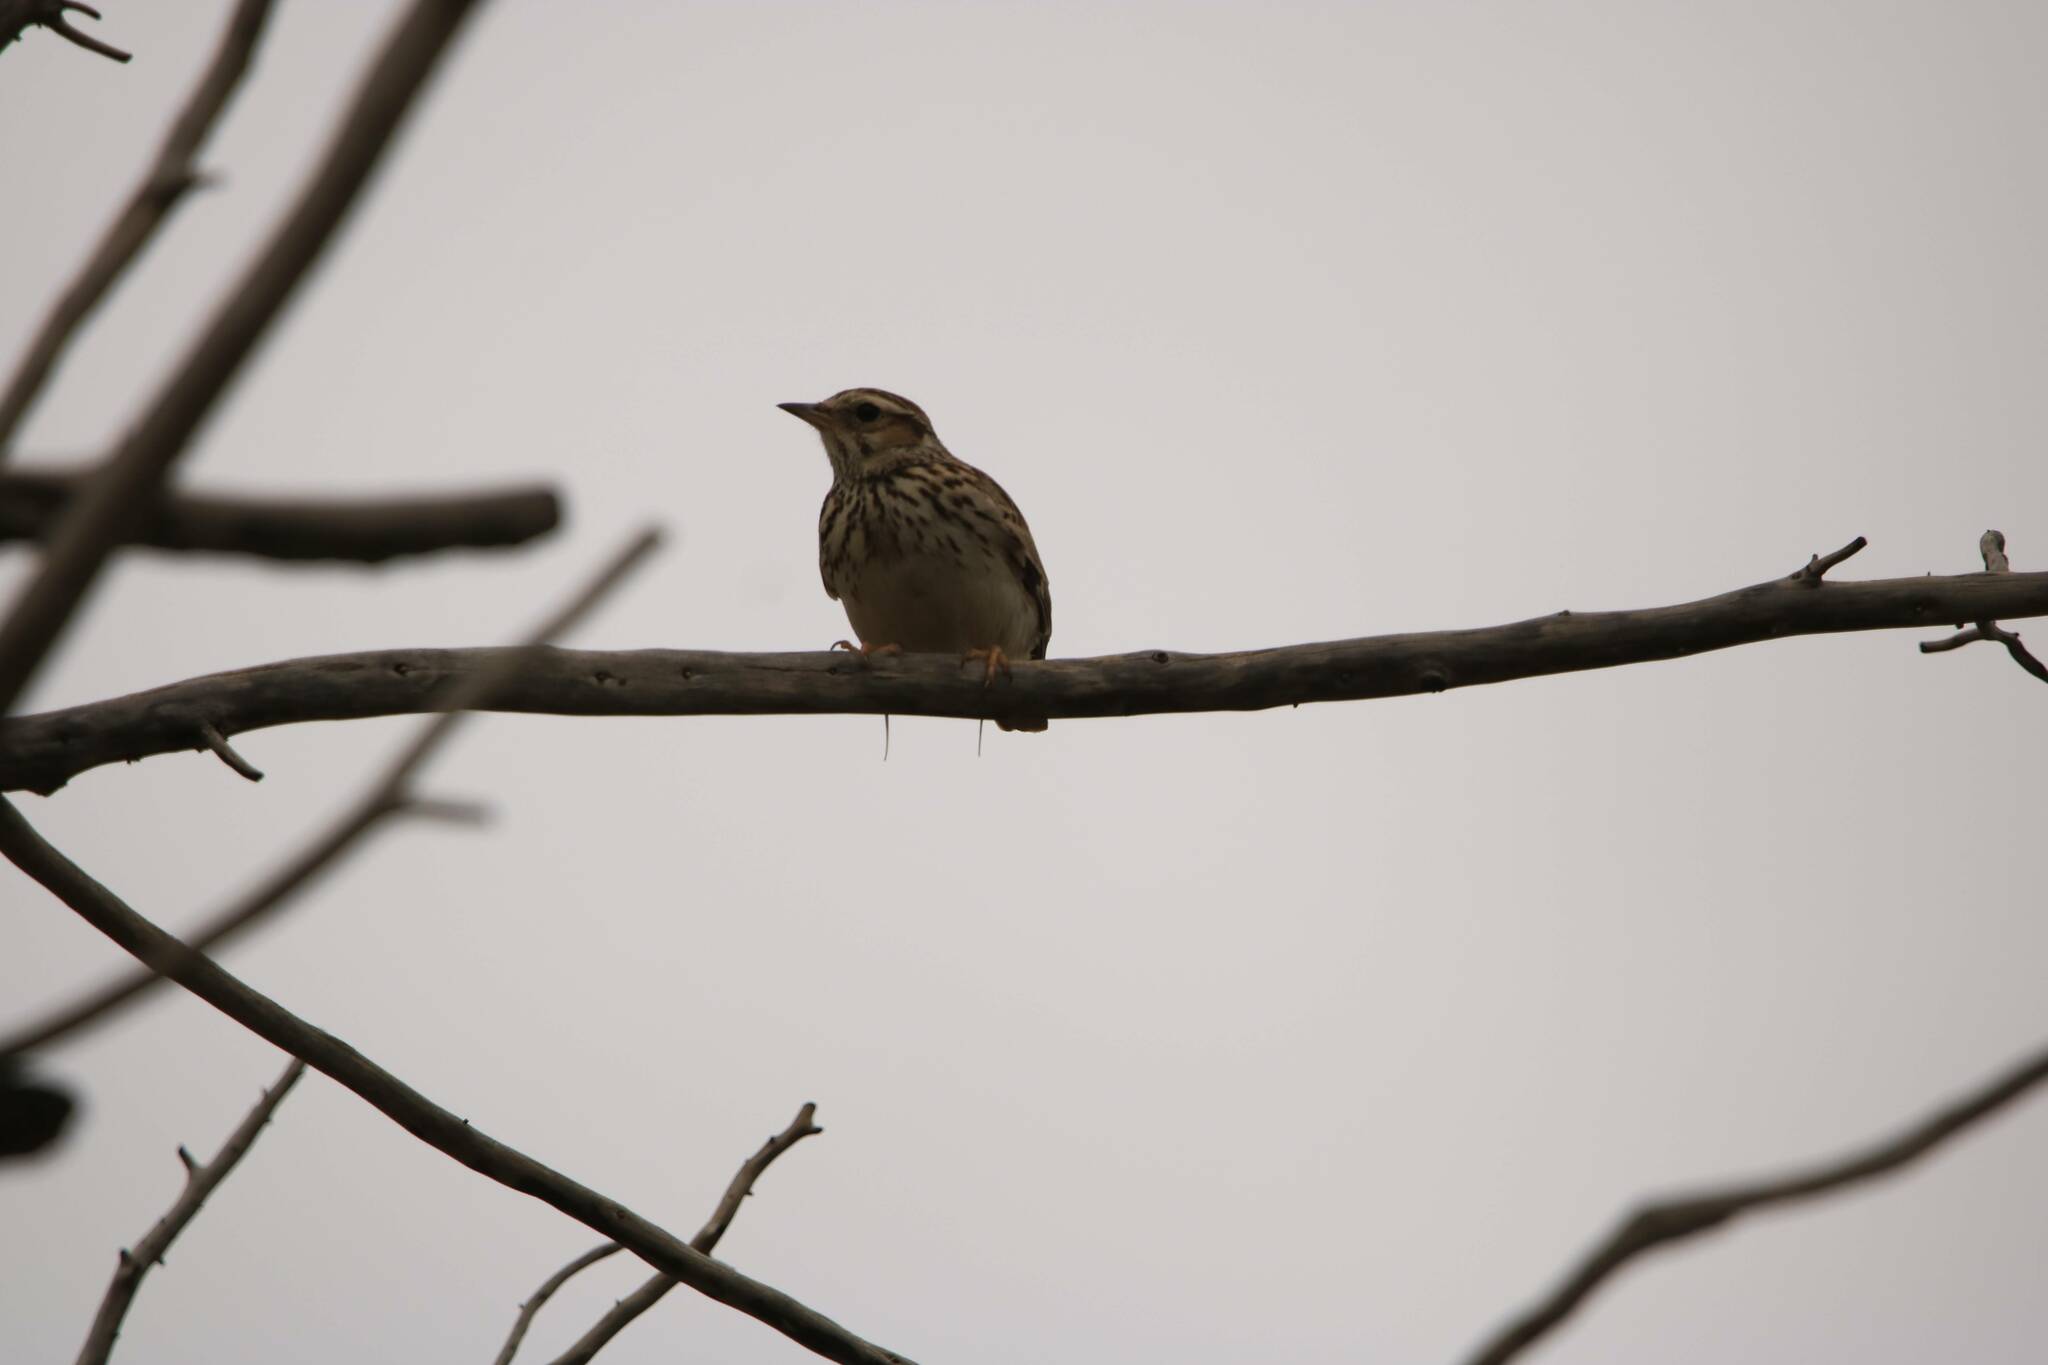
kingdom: Animalia
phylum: Chordata
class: Aves
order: Passeriformes
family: Alaudidae
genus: Lullula
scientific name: Lullula arborea
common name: Woodlark
